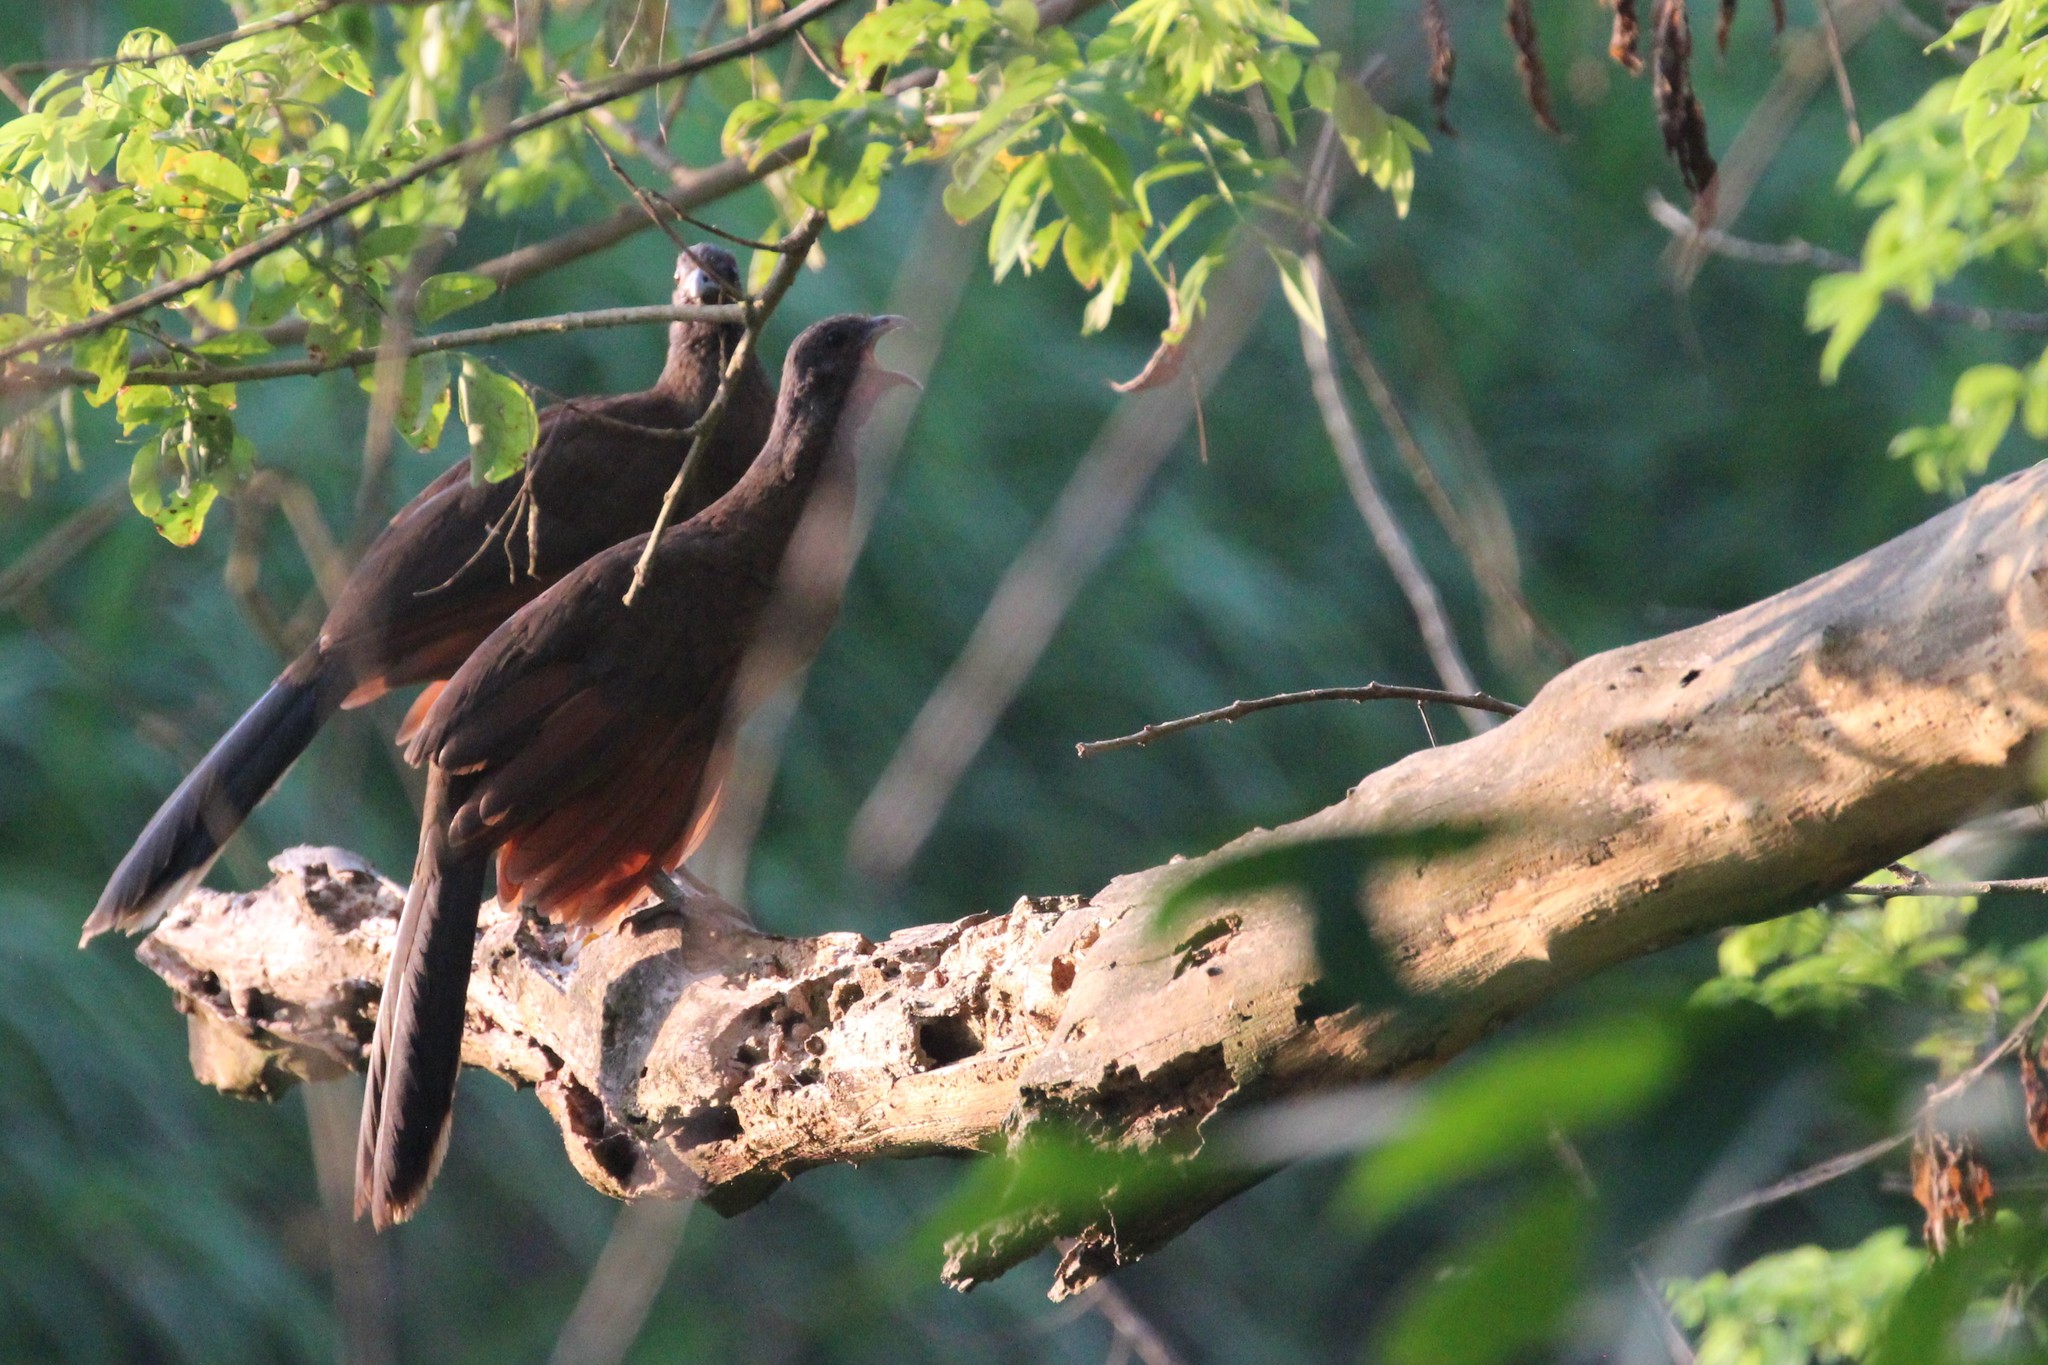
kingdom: Animalia
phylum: Chordata
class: Aves
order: Galliformes
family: Cracidae
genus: Ortalis
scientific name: Ortalis cinereiceps
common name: Grey-headed chachalaca
